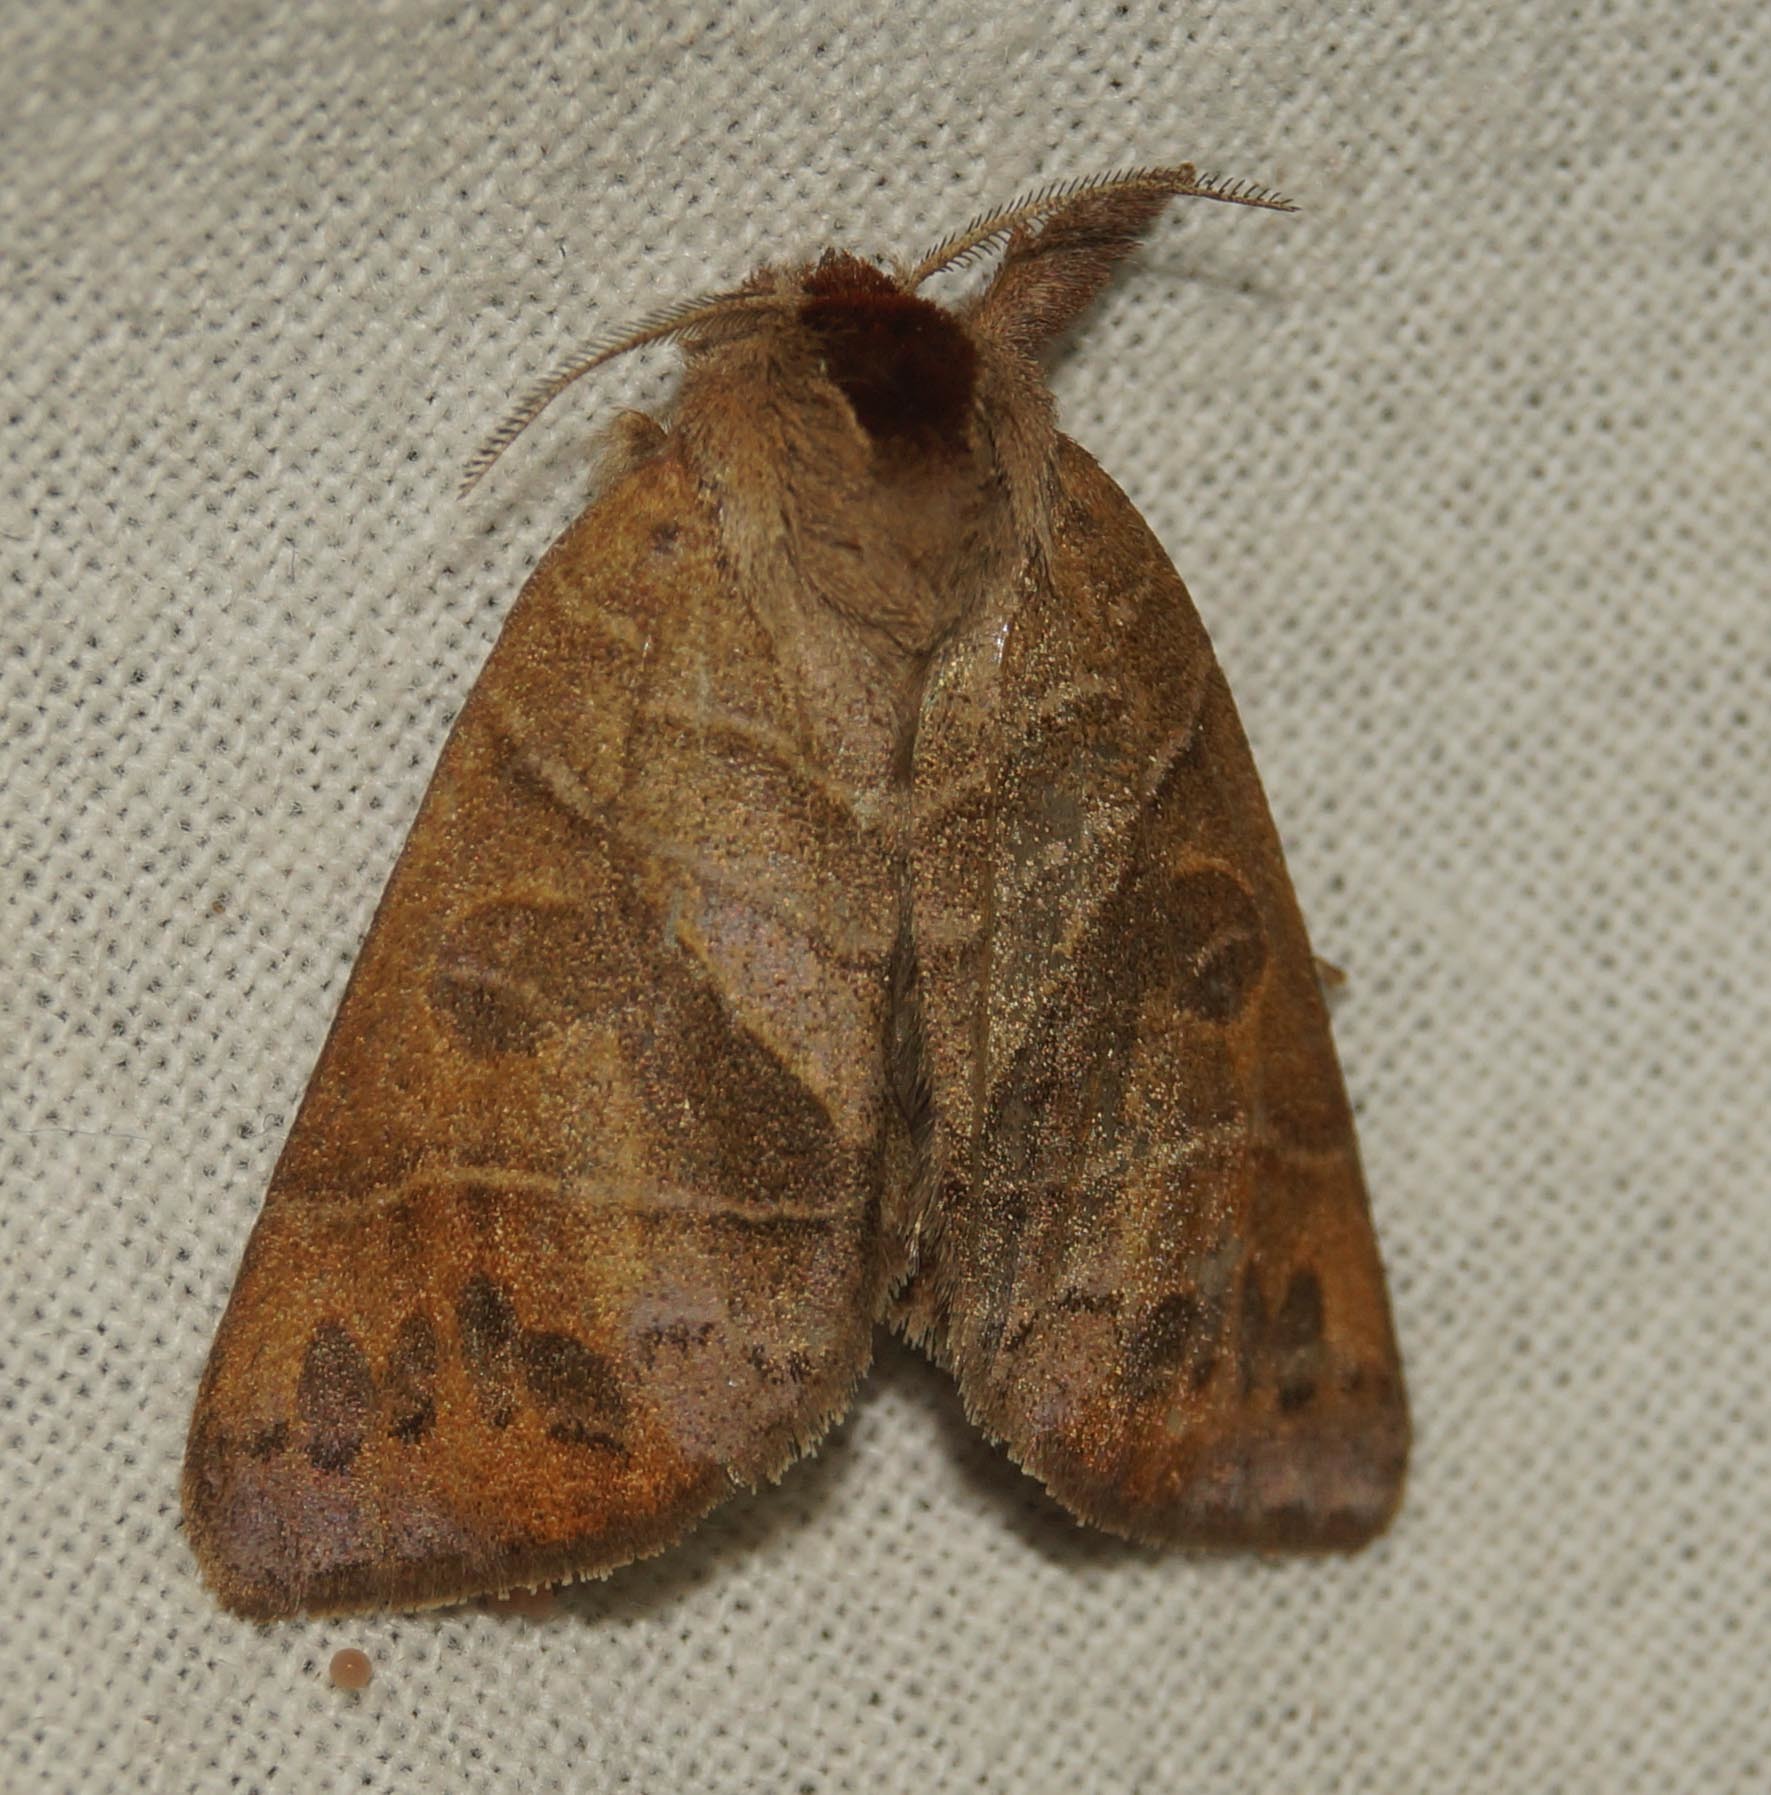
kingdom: Animalia
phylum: Arthropoda
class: Insecta
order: Lepidoptera
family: Notodontidae
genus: Clostera
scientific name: Clostera anastomosis
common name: Poplar tip moth
